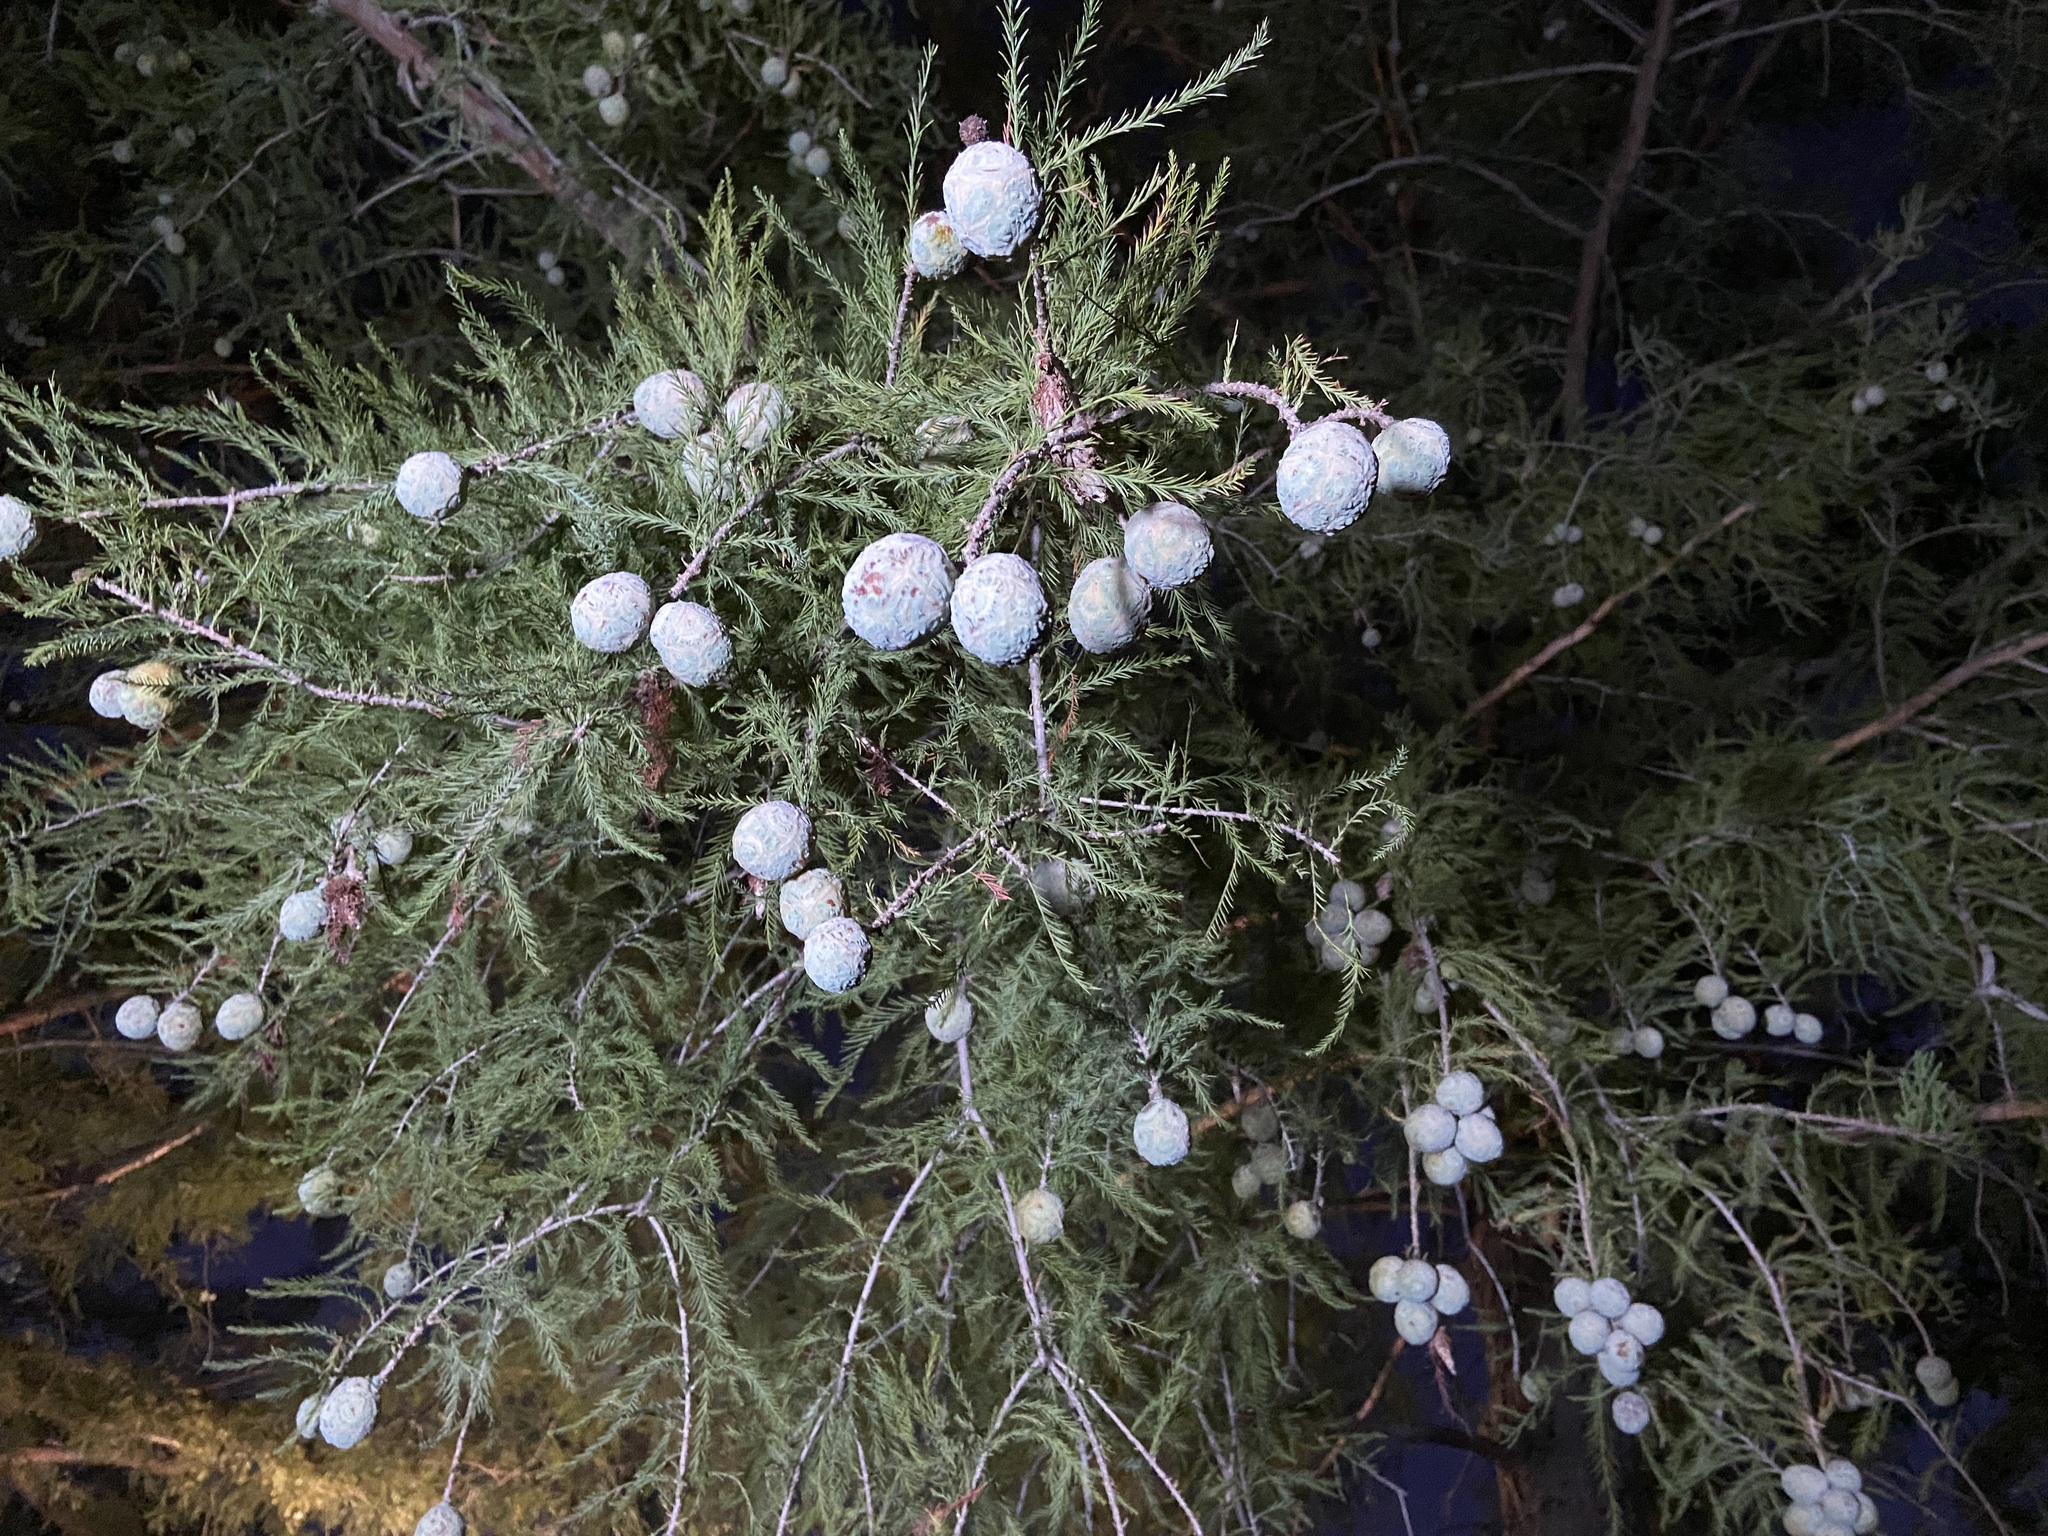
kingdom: Plantae
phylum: Tracheophyta
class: Pinopsida
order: Pinales
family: Cupressaceae
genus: Taxodium
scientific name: Taxodium distichum
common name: Bald cypress
